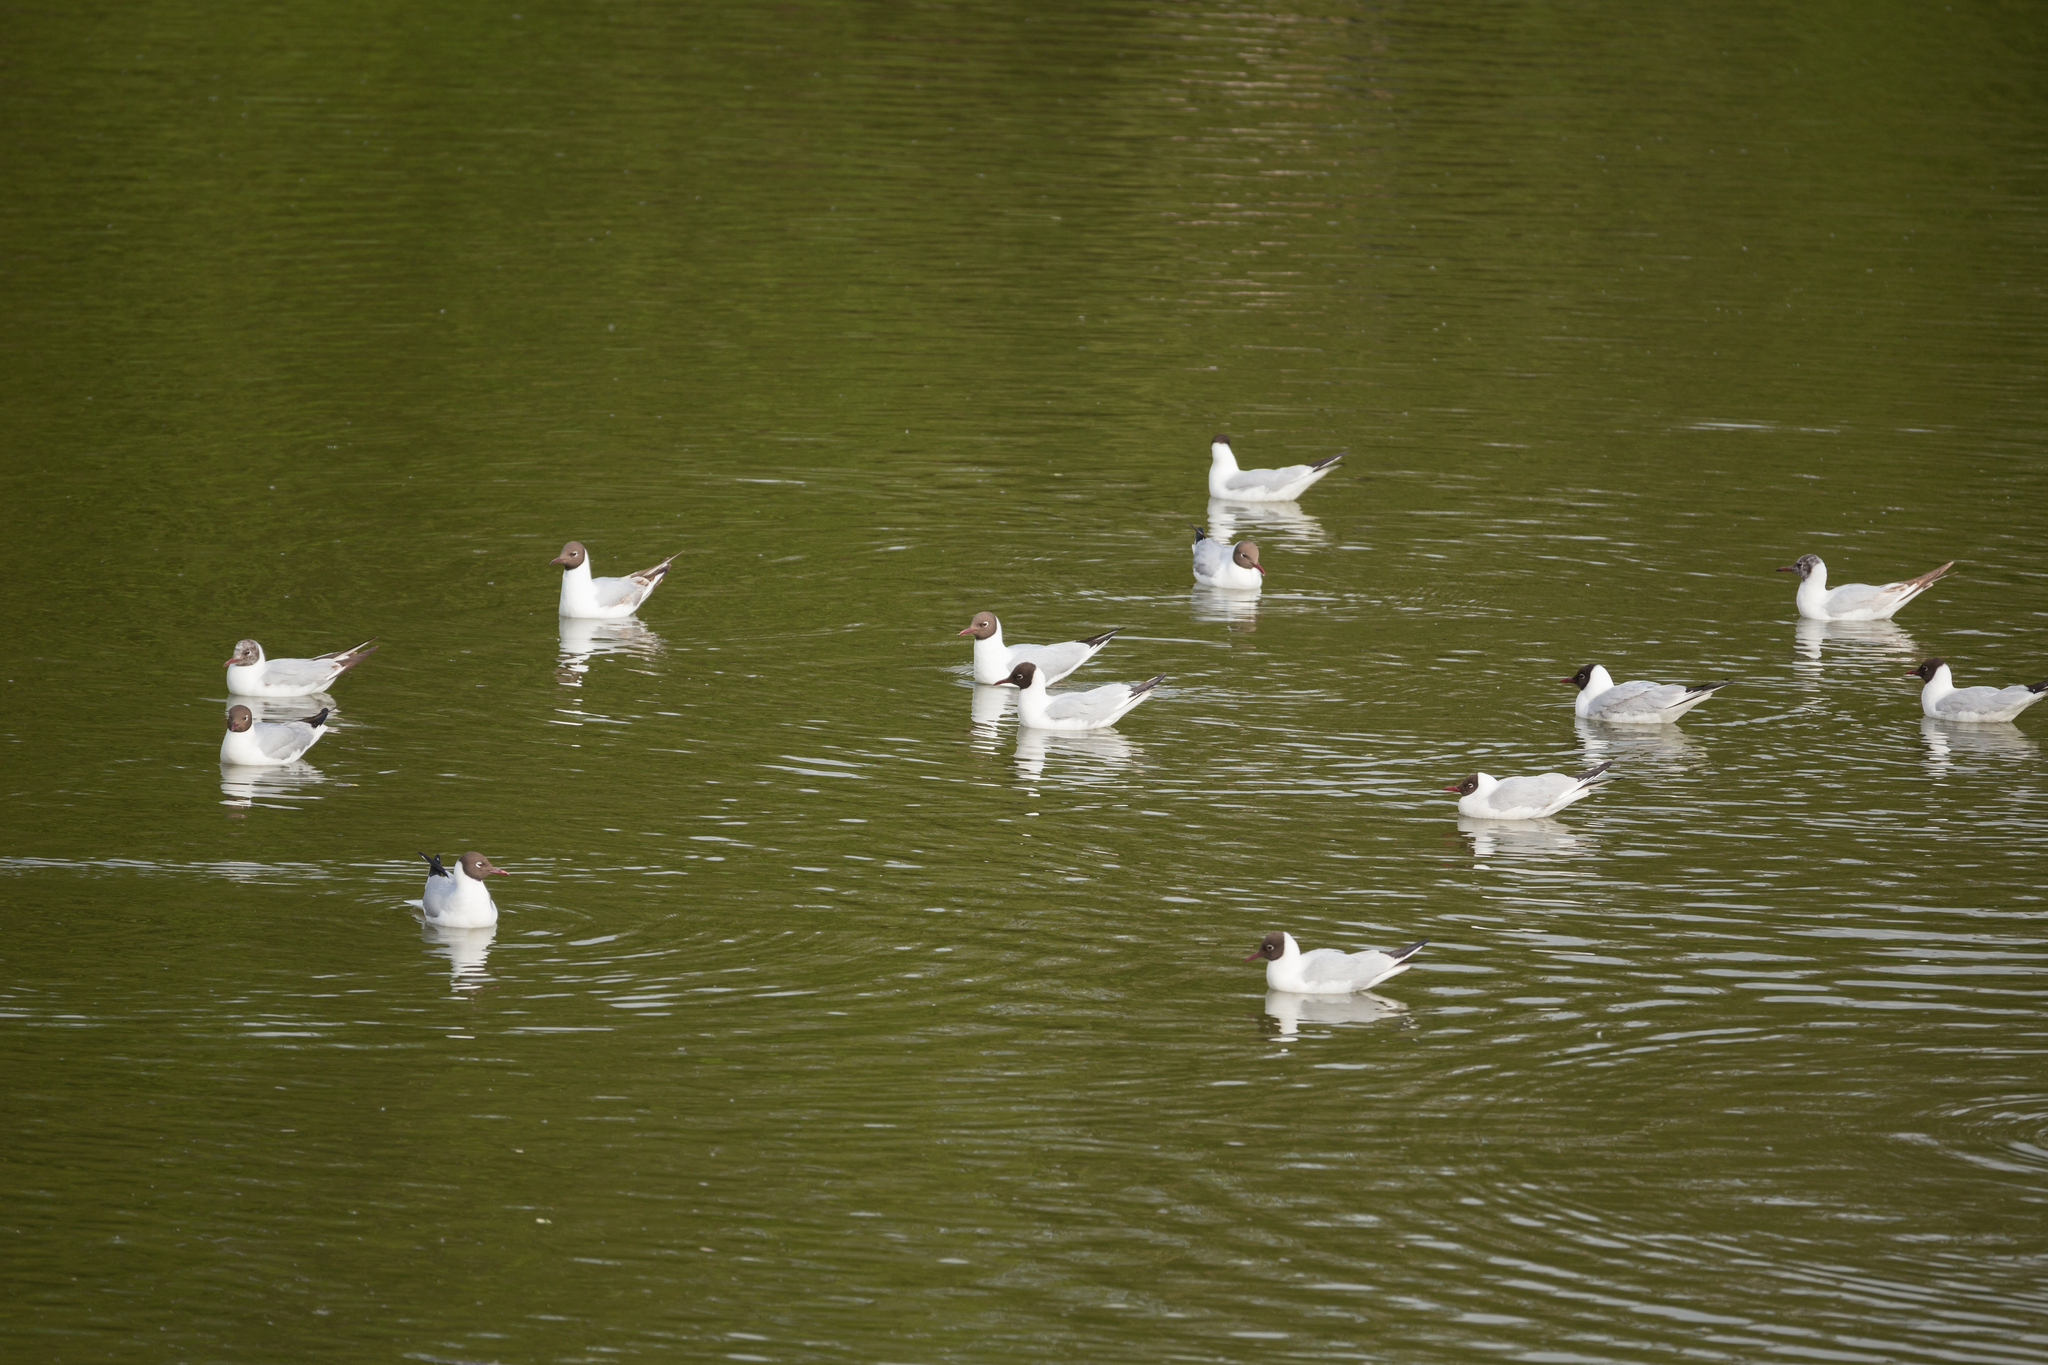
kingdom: Animalia
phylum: Chordata
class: Aves
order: Charadriiformes
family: Laridae
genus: Chroicocephalus
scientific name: Chroicocephalus ridibundus
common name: Black-headed gull
